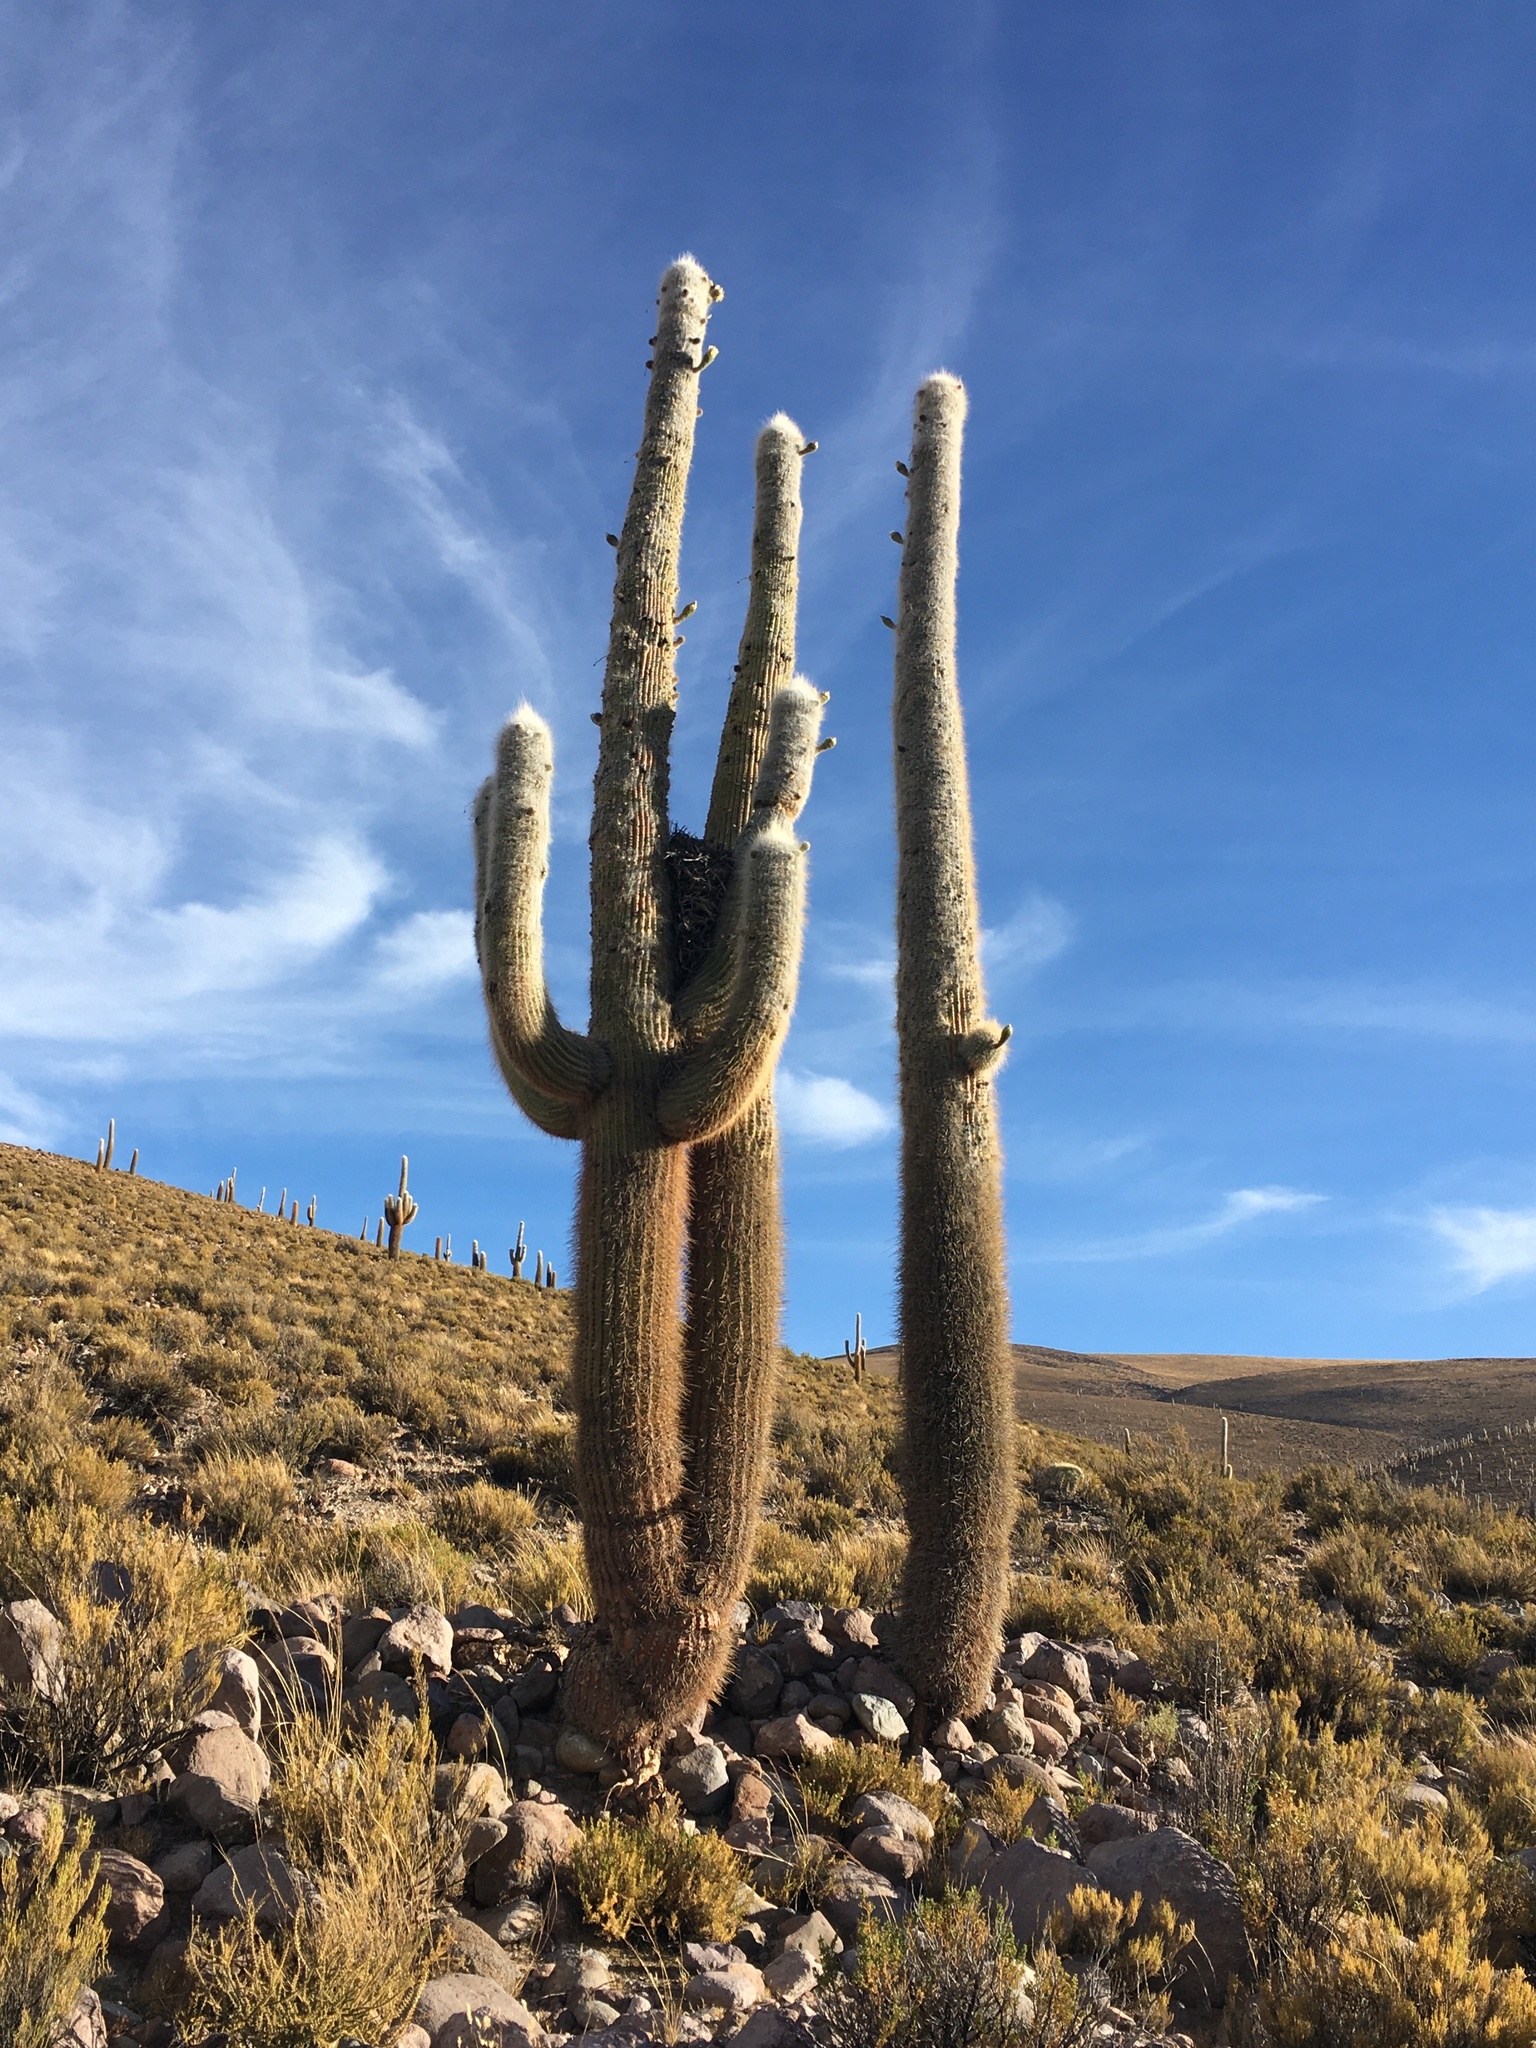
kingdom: Plantae
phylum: Tracheophyta
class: Magnoliopsida
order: Caryophyllales
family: Cactaceae
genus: Leucostele
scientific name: Leucostele atacamensis
